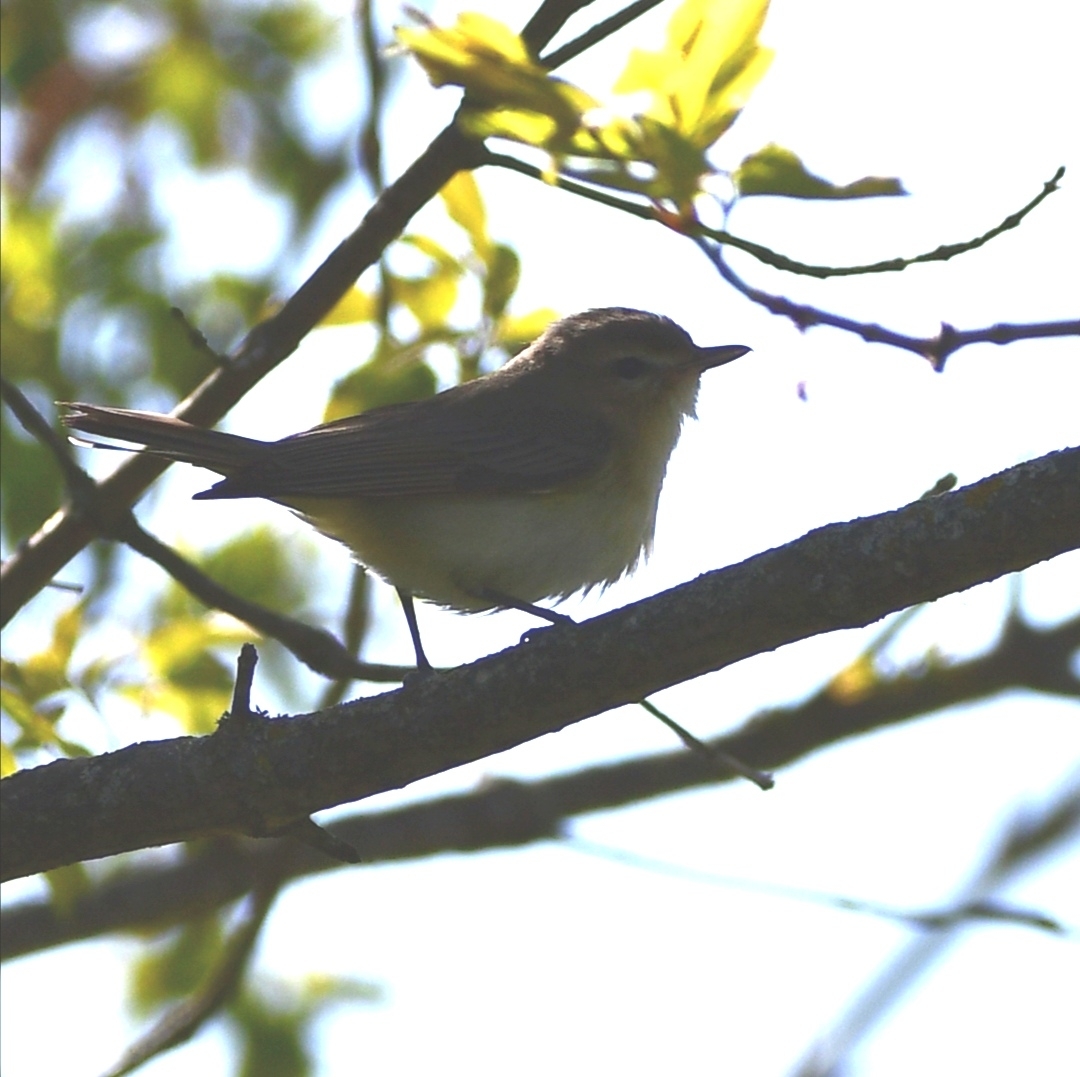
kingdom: Animalia
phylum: Chordata
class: Aves
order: Passeriformes
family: Vireonidae
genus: Vireo
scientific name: Vireo gilvus
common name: Warbling vireo
